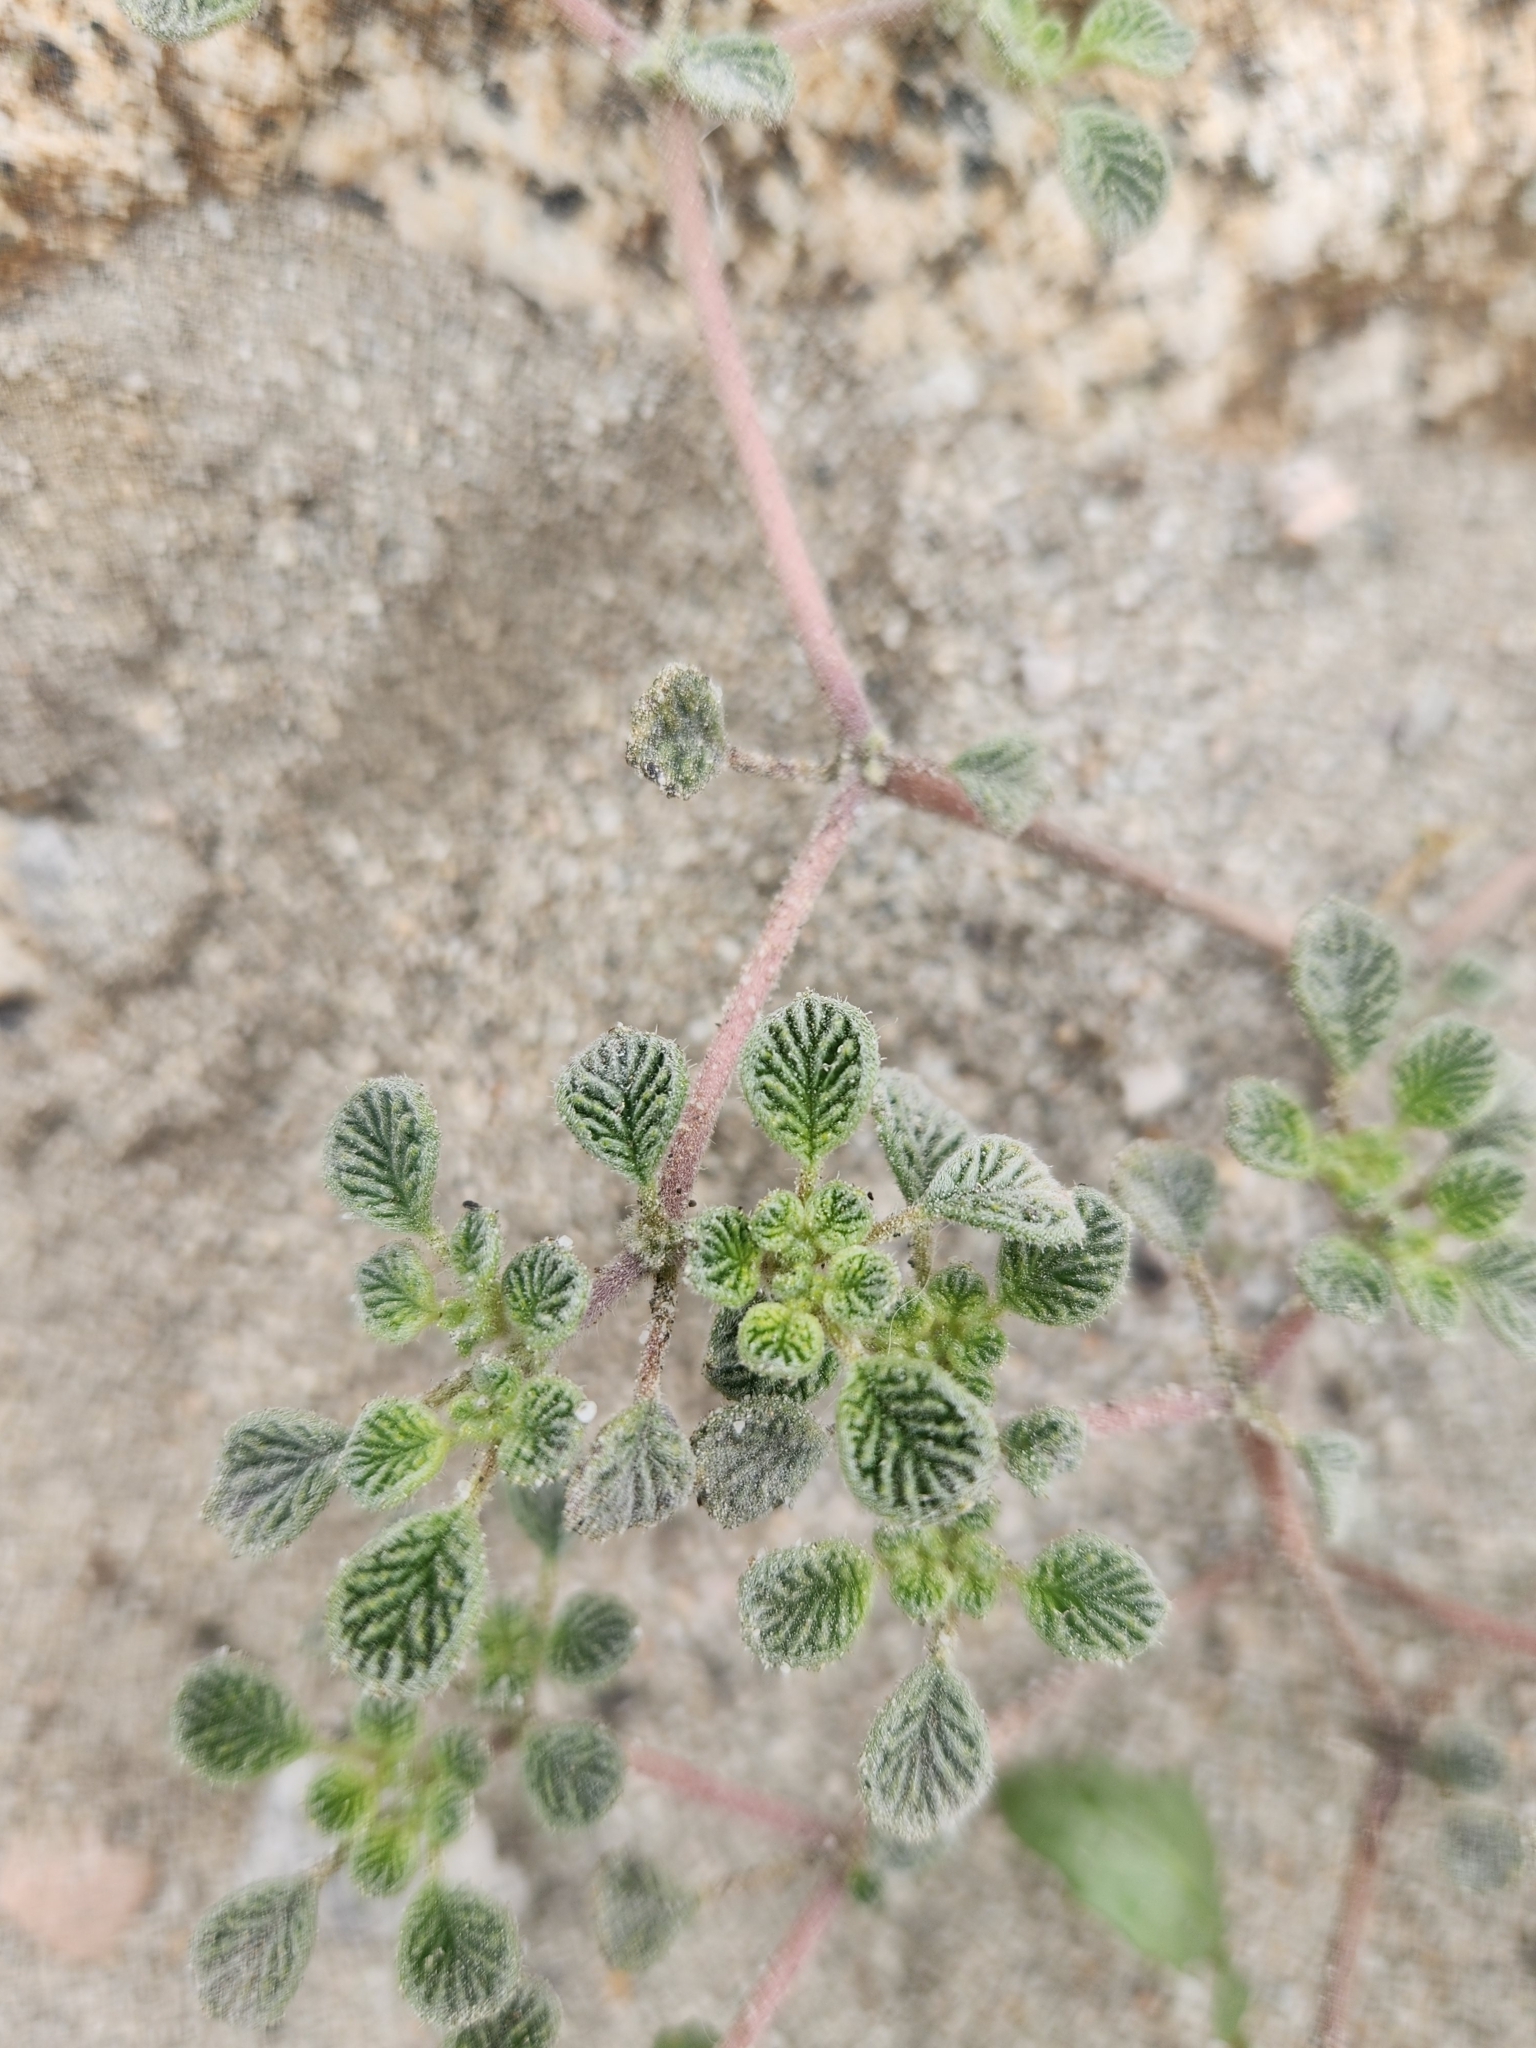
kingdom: Plantae
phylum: Tracheophyta
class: Magnoliopsida
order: Boraginales
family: Ehretiaceae
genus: Tiquilia
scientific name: Tiquilia plicata
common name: Fan-leaf tiquilia
